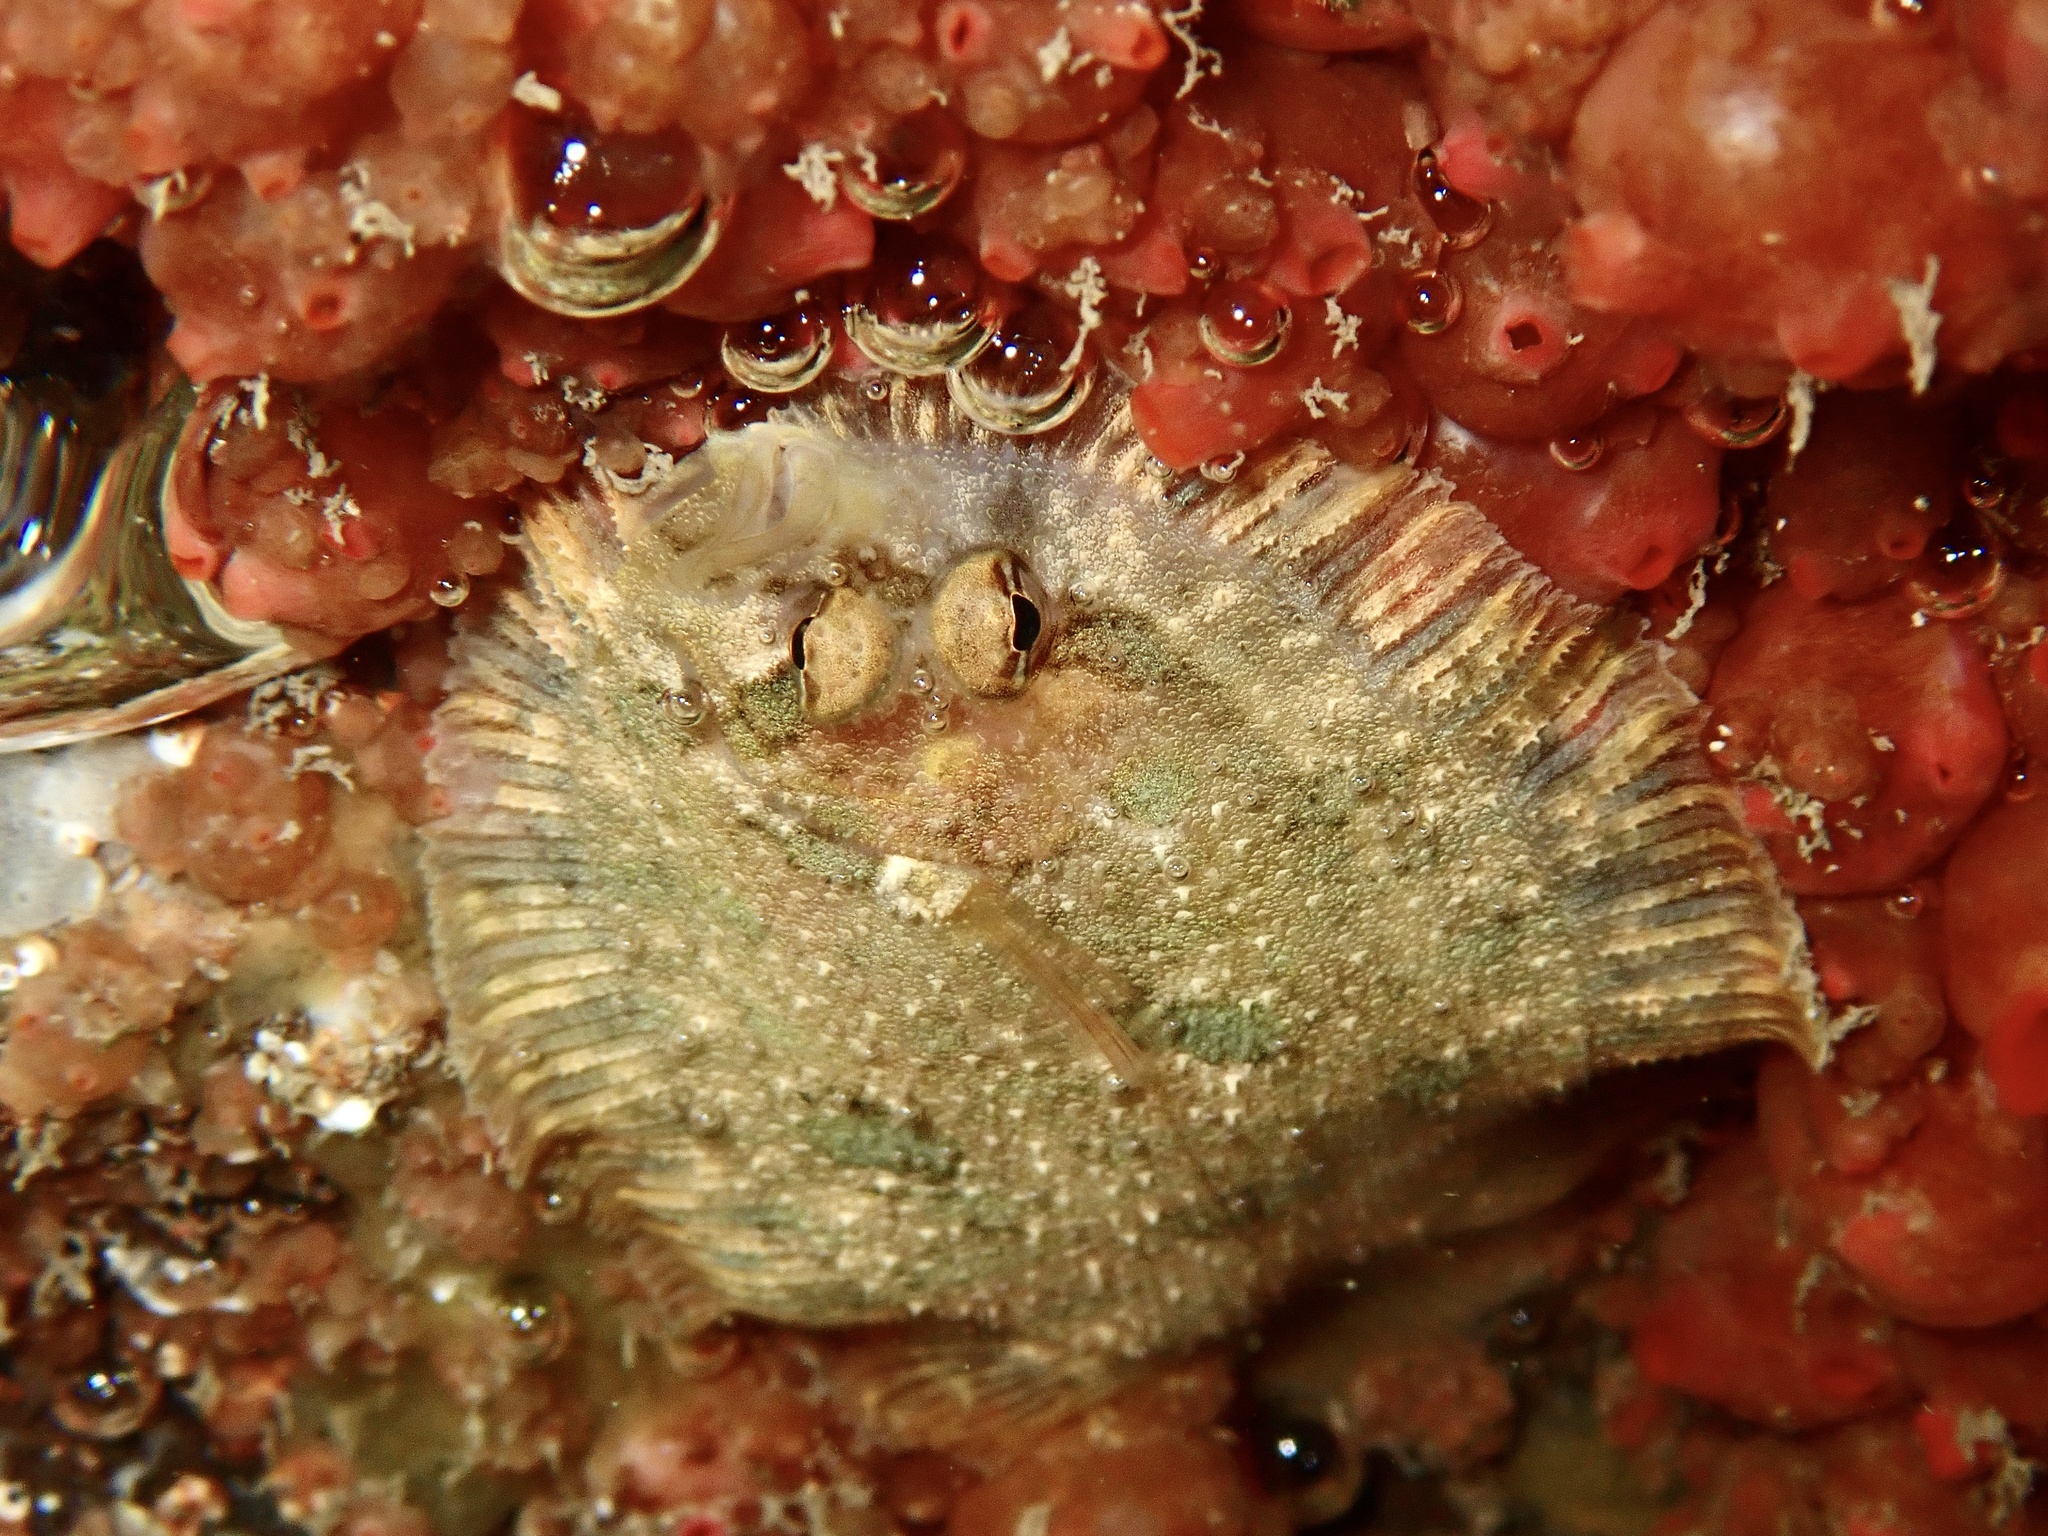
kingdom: Animalia
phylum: Chordata
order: Pleuronectiformes
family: Scophthalmidae
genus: Zeugopterus
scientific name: Zeugopterus punctatus
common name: Topknot
